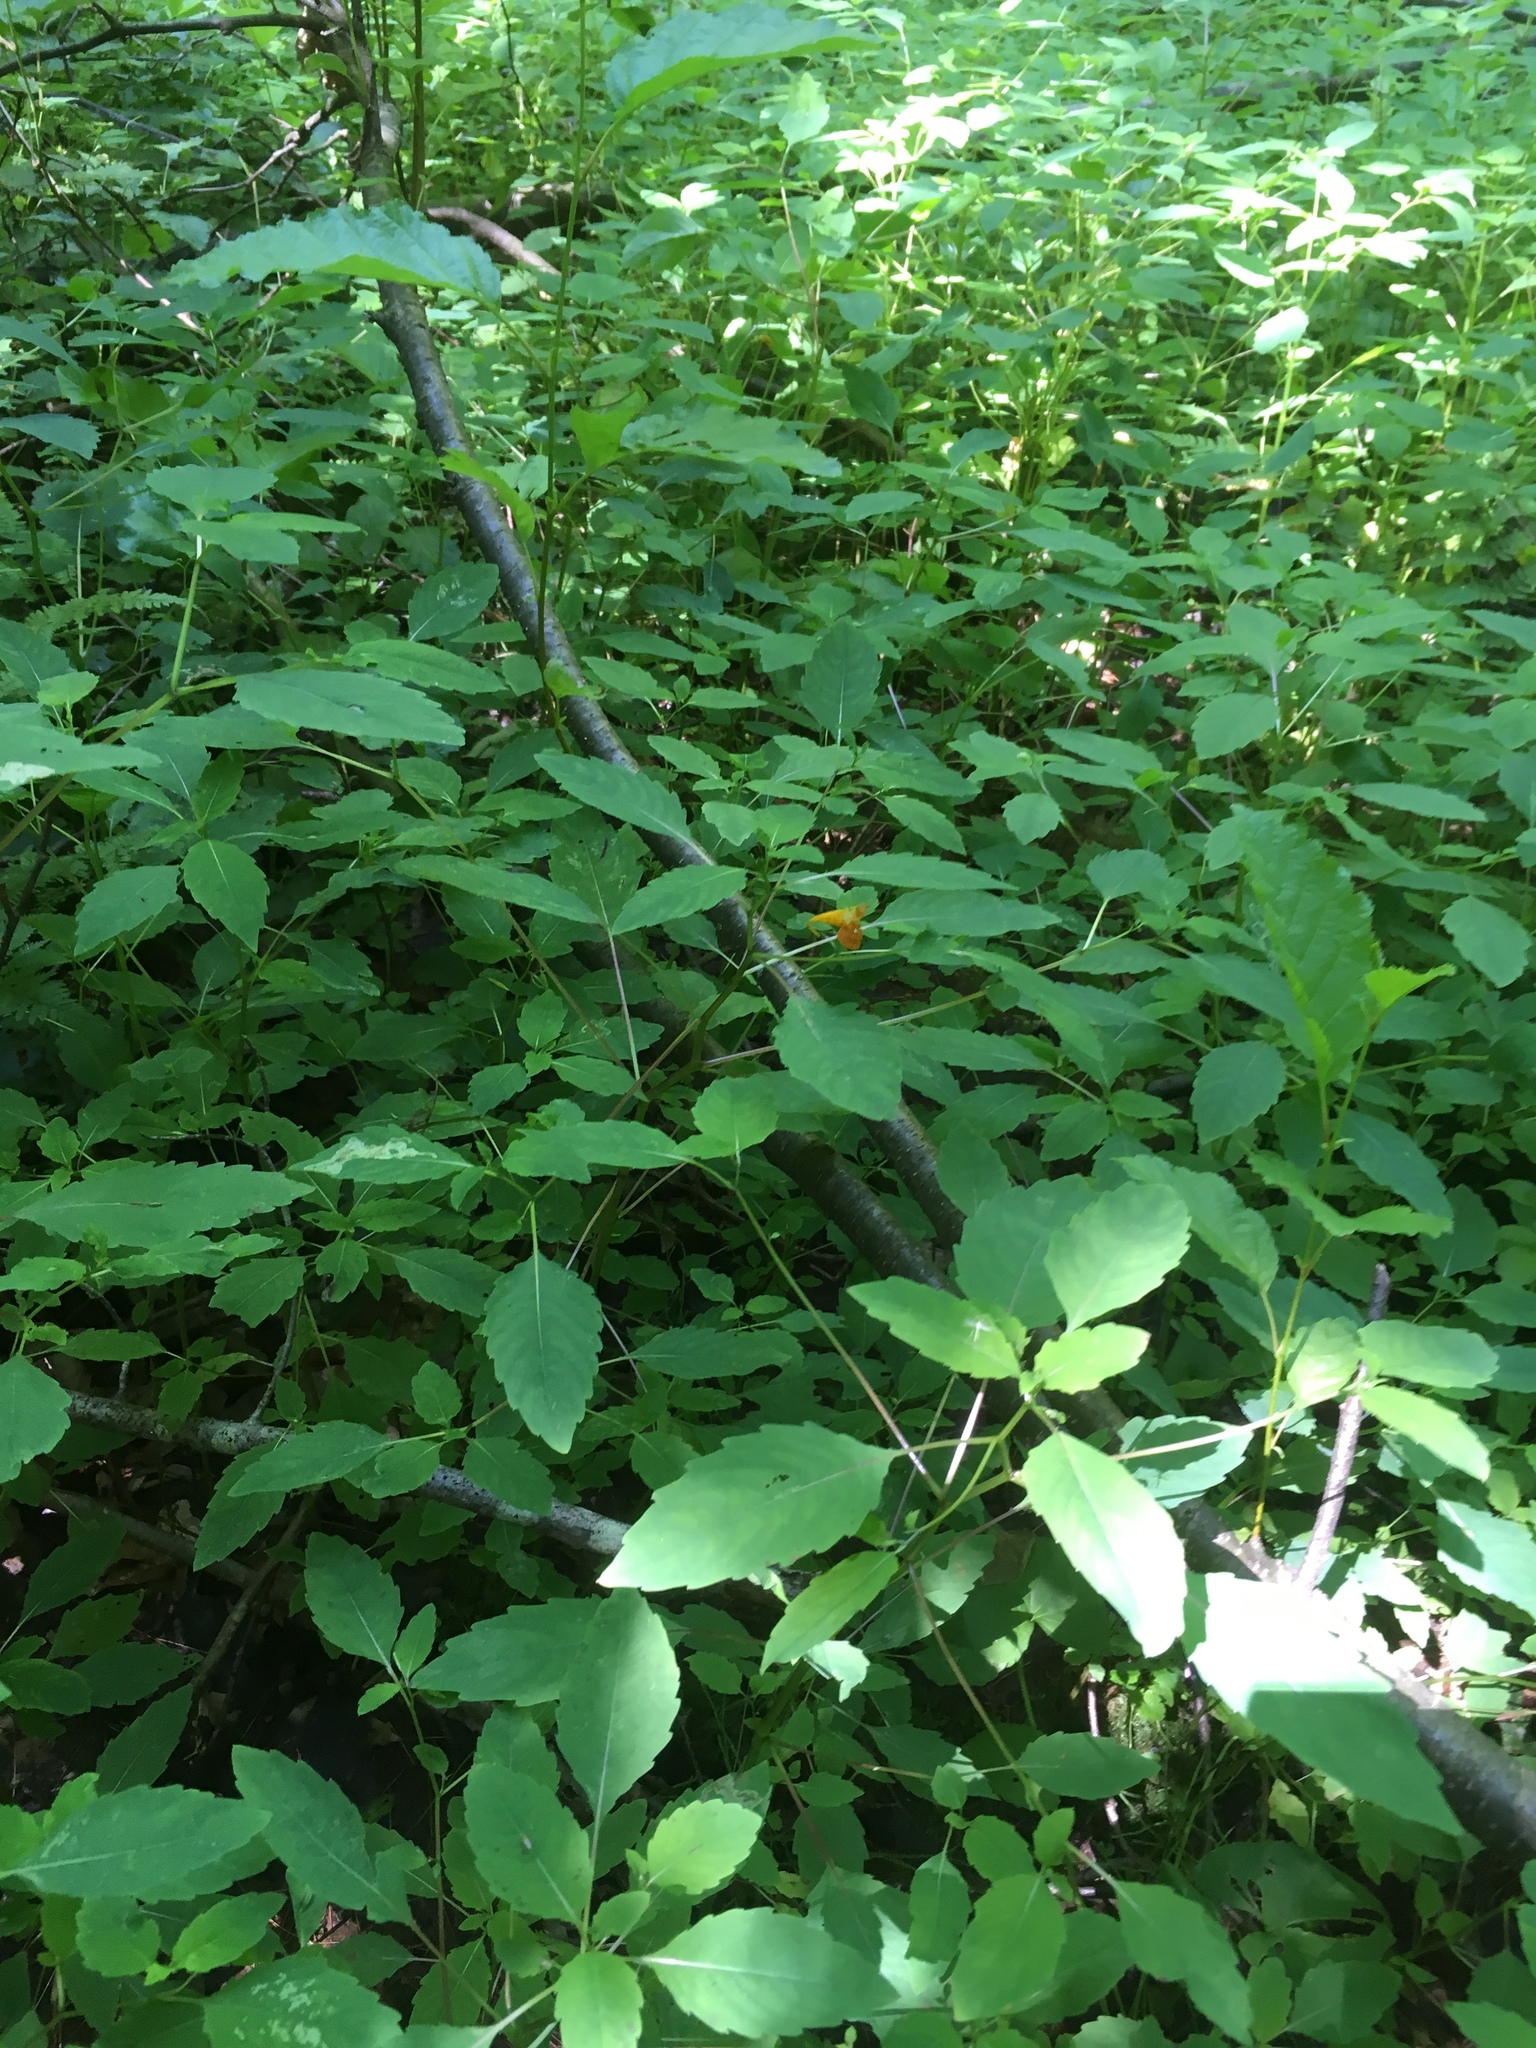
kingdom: Plantae
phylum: Tracheophyta
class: Magnoliopsida
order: Ericales
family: Balsaminaceae
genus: Impatiens
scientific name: Impatiens capensis
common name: Orange balsam
